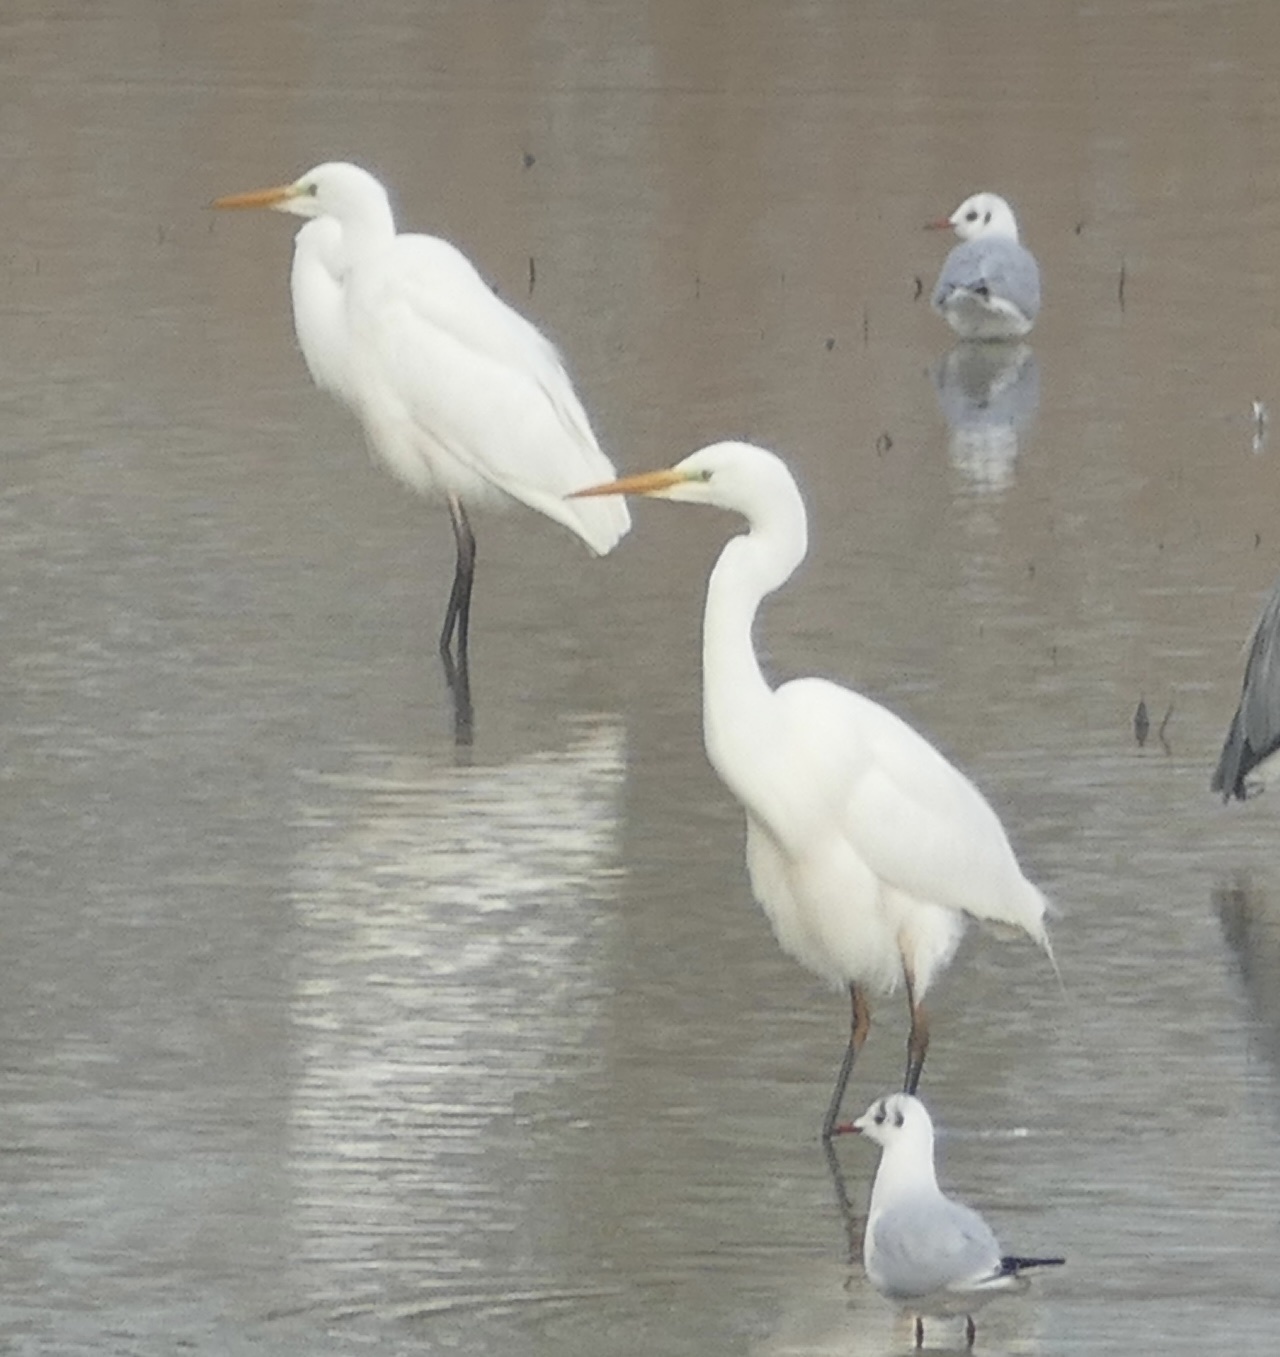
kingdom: Animalia
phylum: Chordata
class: Aves
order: Pelecaniformes
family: Ardeidae
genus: Ardea
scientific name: Ardea alba
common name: Great egret
